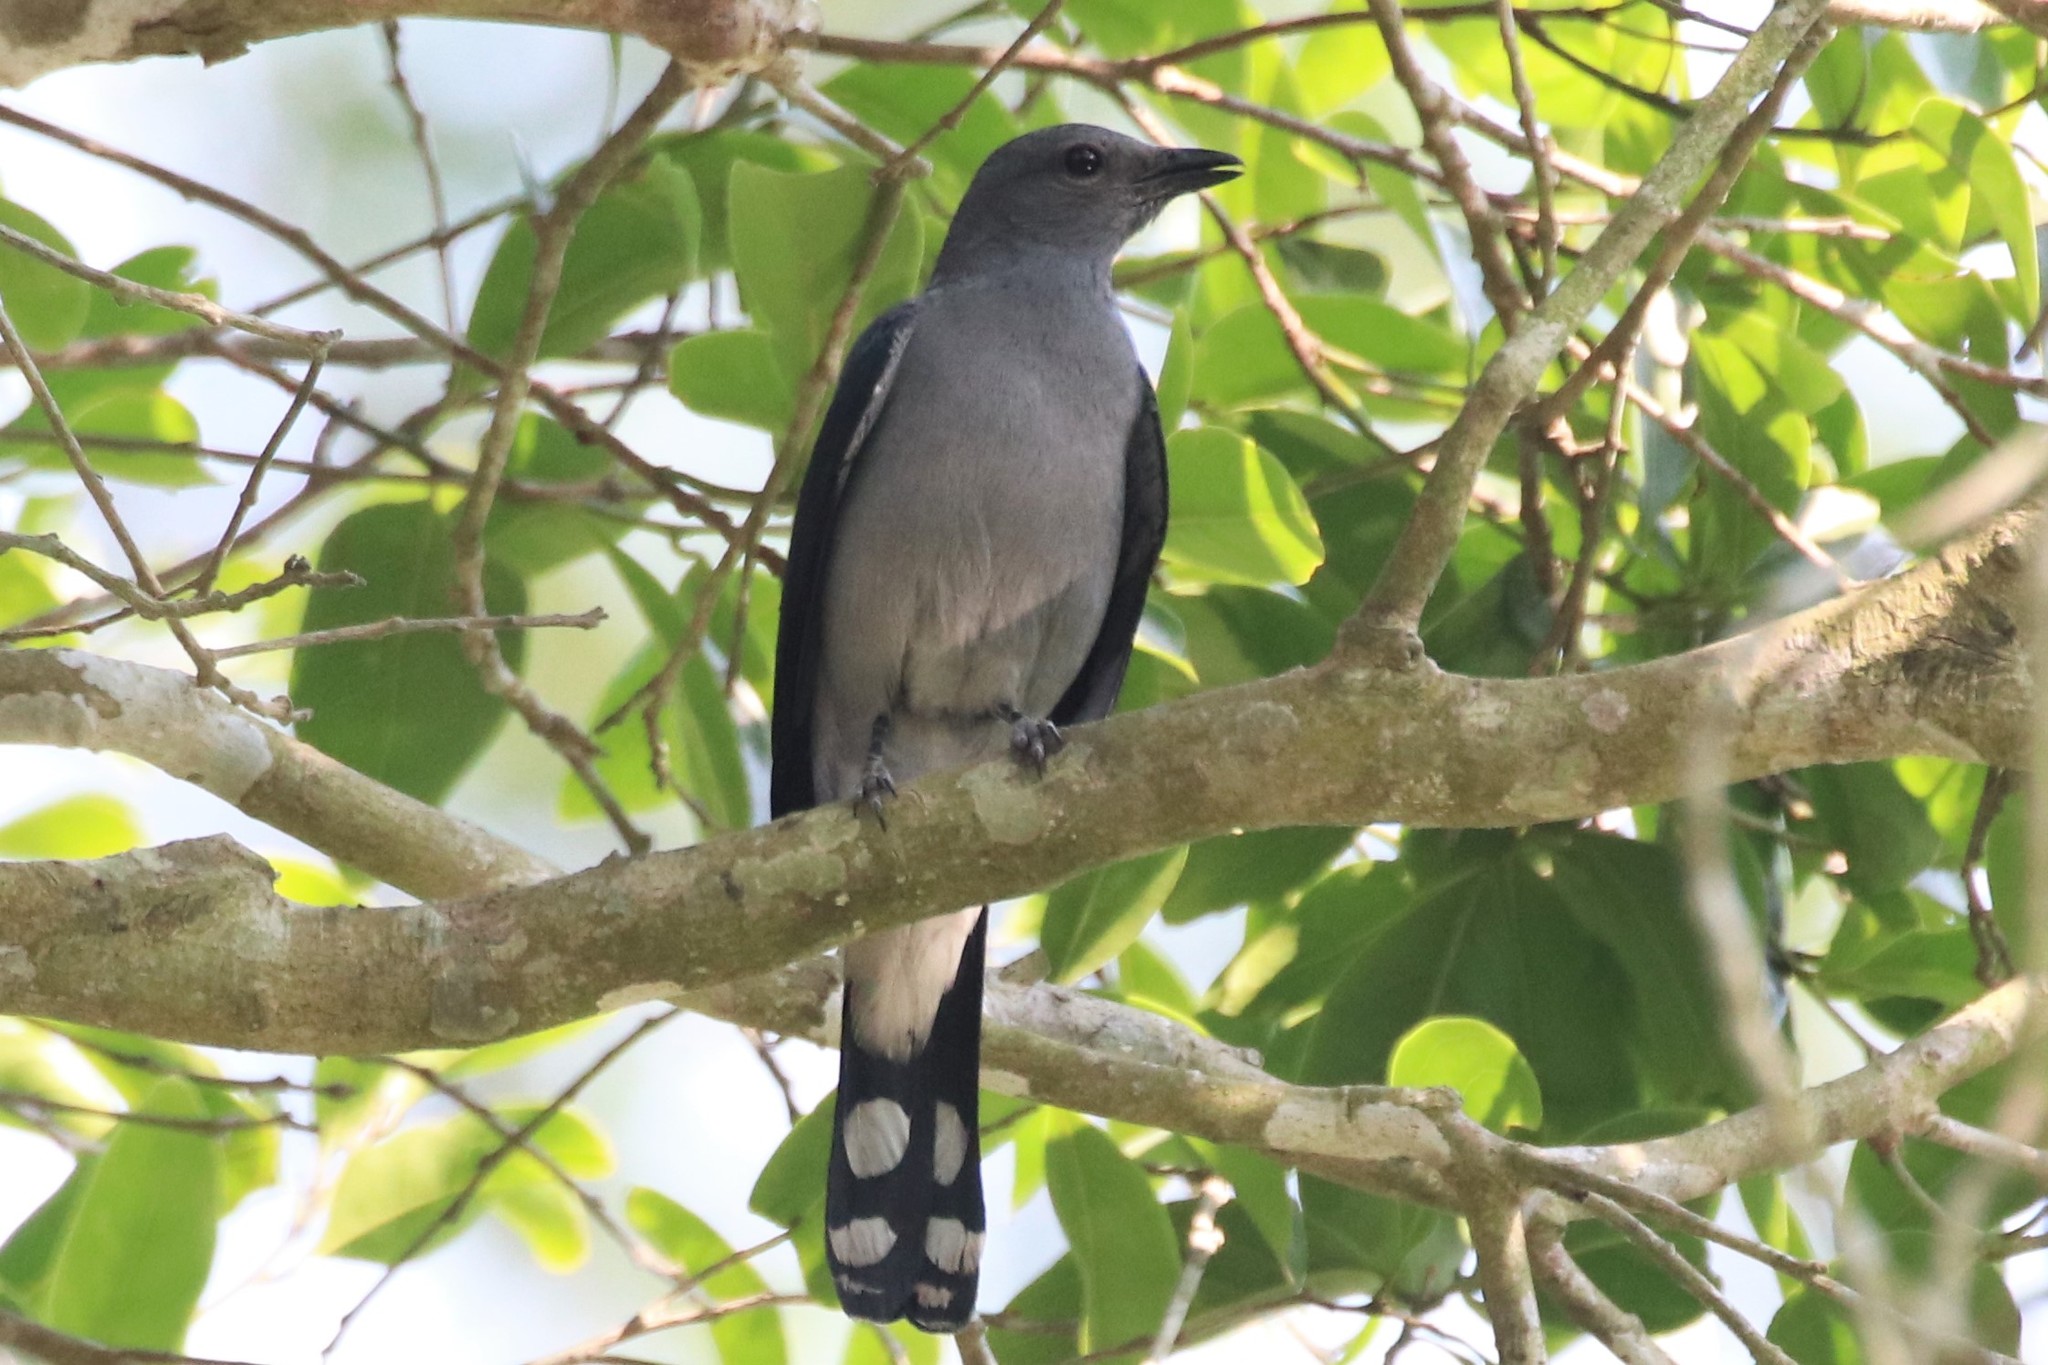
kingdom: Animalia
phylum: Chordata
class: Aves
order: Passeriformes
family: Campephagidae
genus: Coracina
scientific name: Coracina melaschistos
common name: Black-winged cuckooshrike
